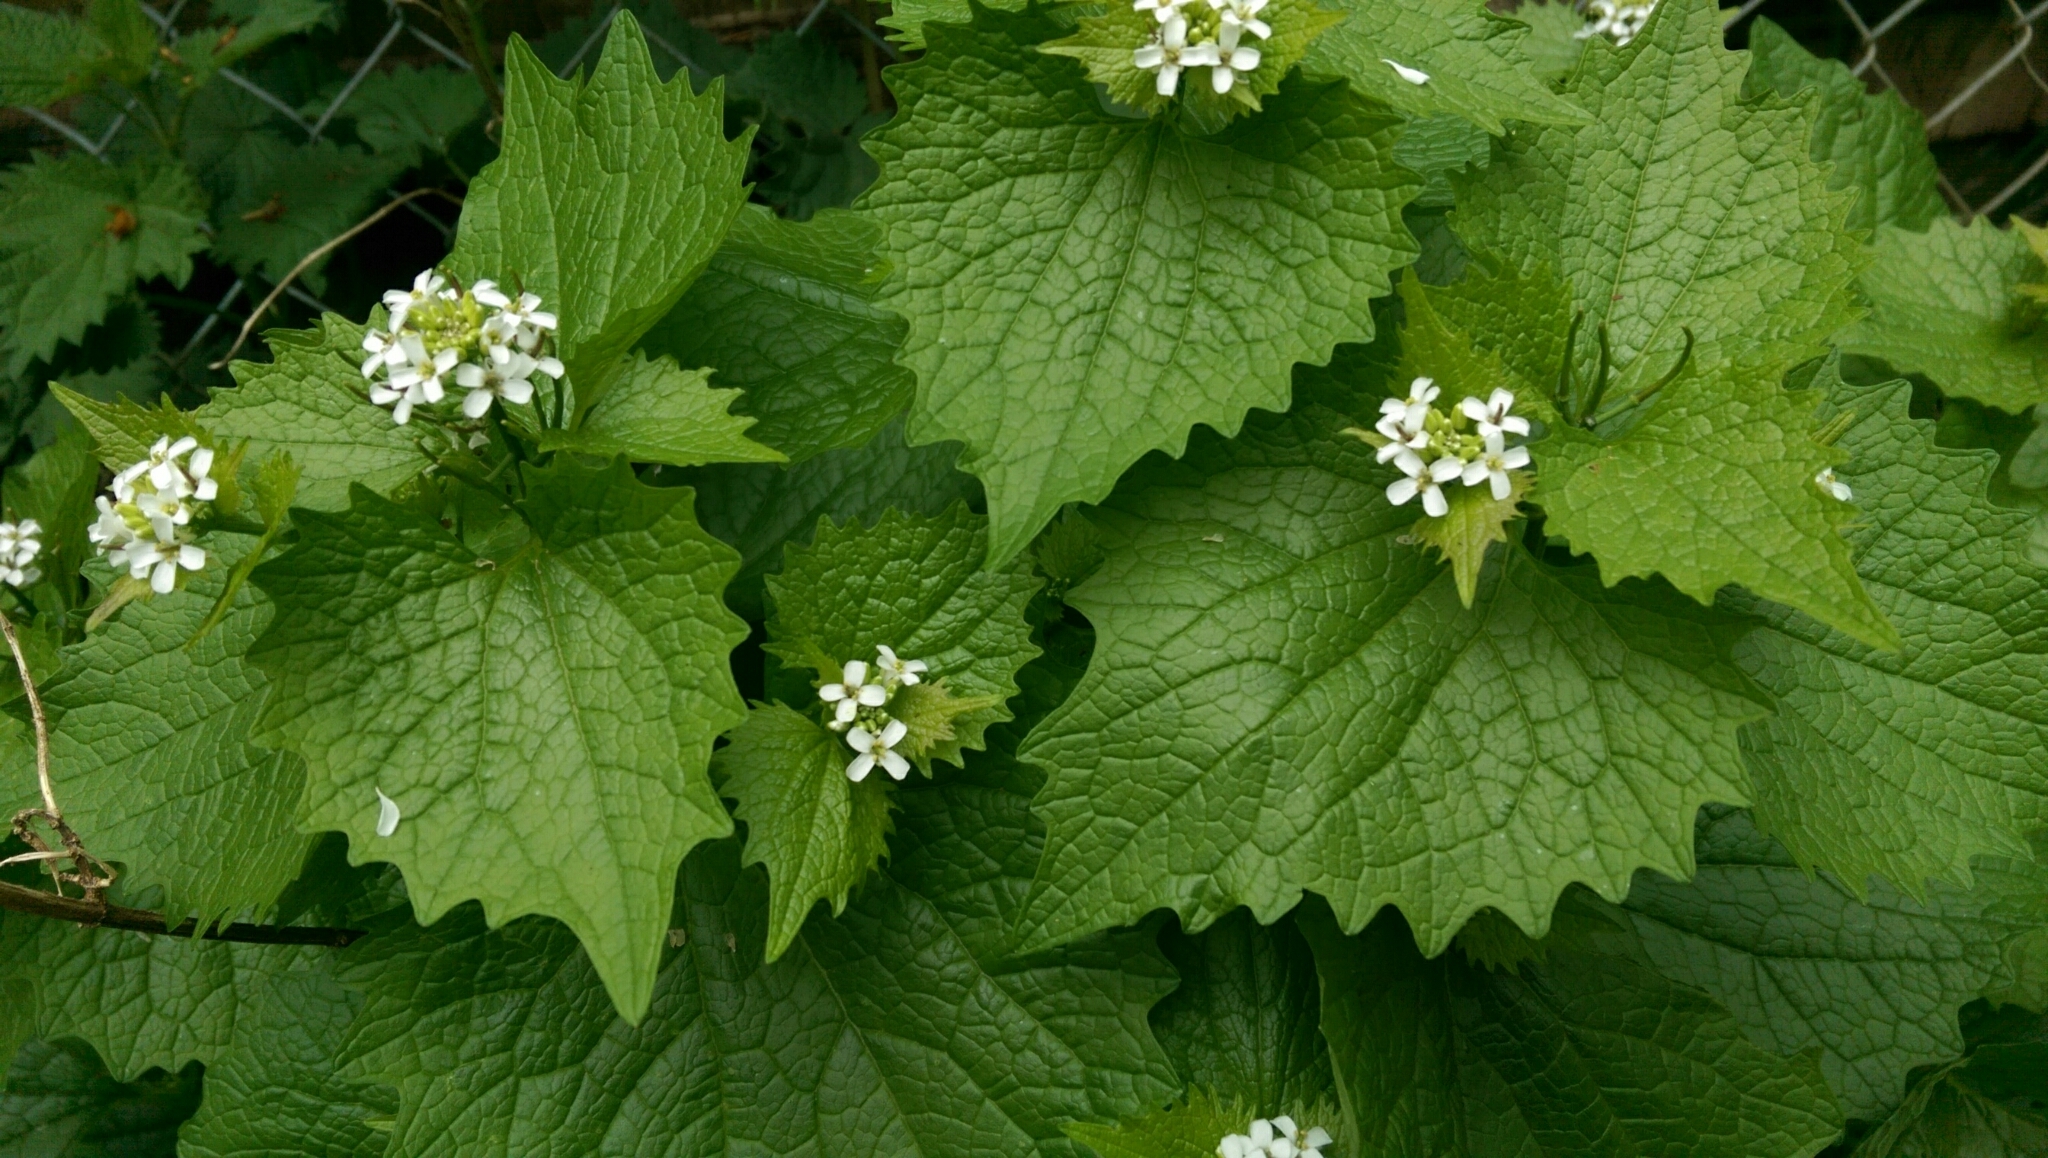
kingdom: Plantae
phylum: Tracheophyta
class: Magnoliopsida
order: Brassicales
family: Brassicaceae
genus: Alliaria
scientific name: Alliaria petiolata
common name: Garlic mustard
